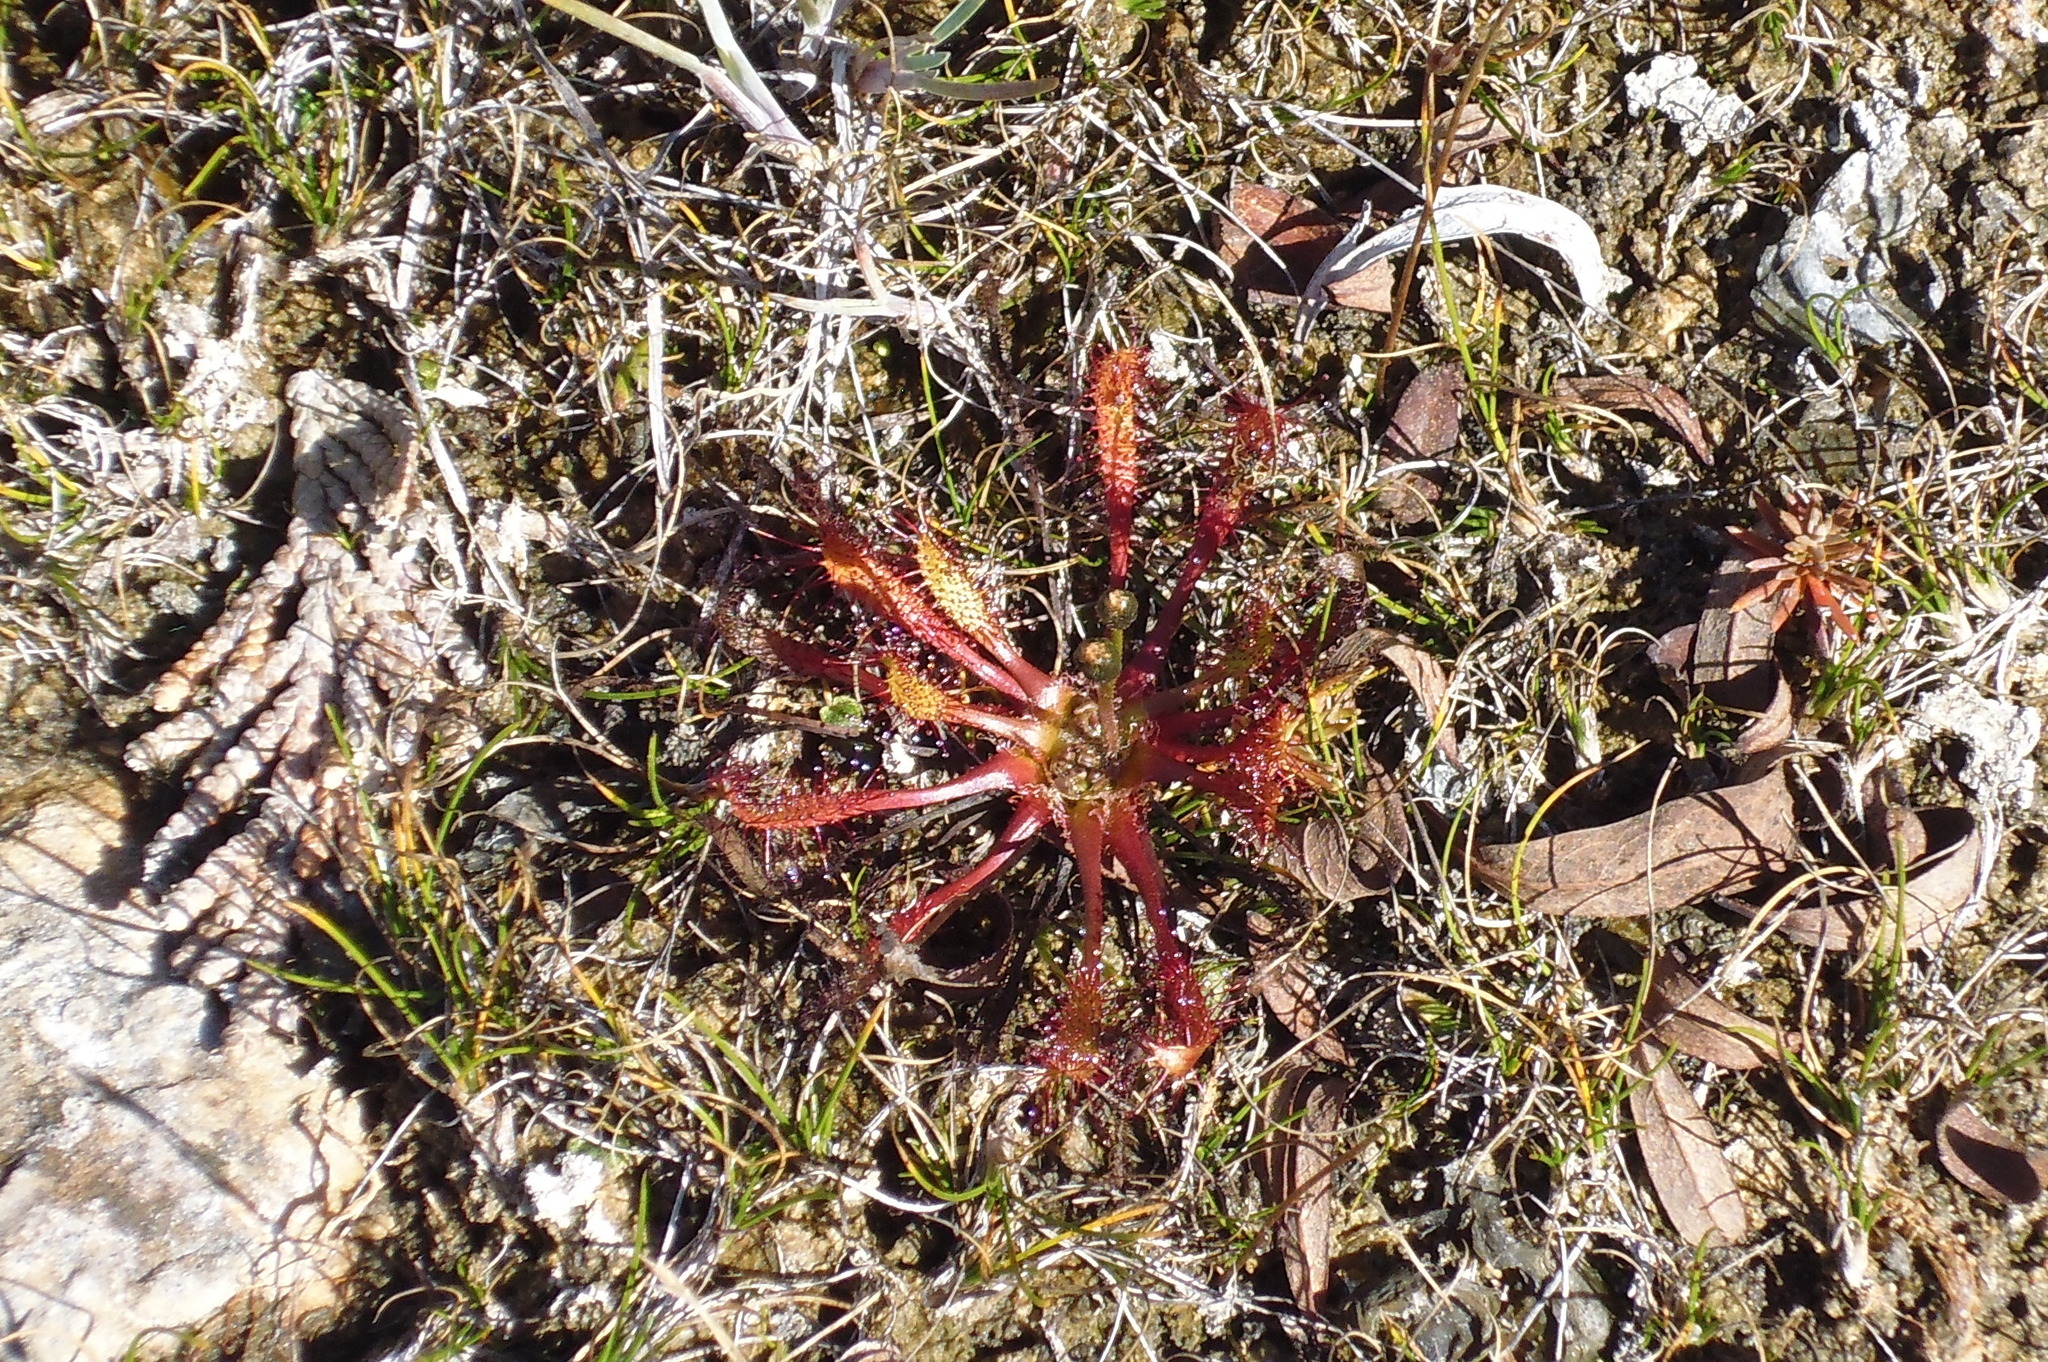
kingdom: Plantae
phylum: Tracheophyta
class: Magnoliopsida
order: Caryophyllales
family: Droseraceae
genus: Drosera
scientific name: Drosera linearis
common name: Linear-leaved sundew
